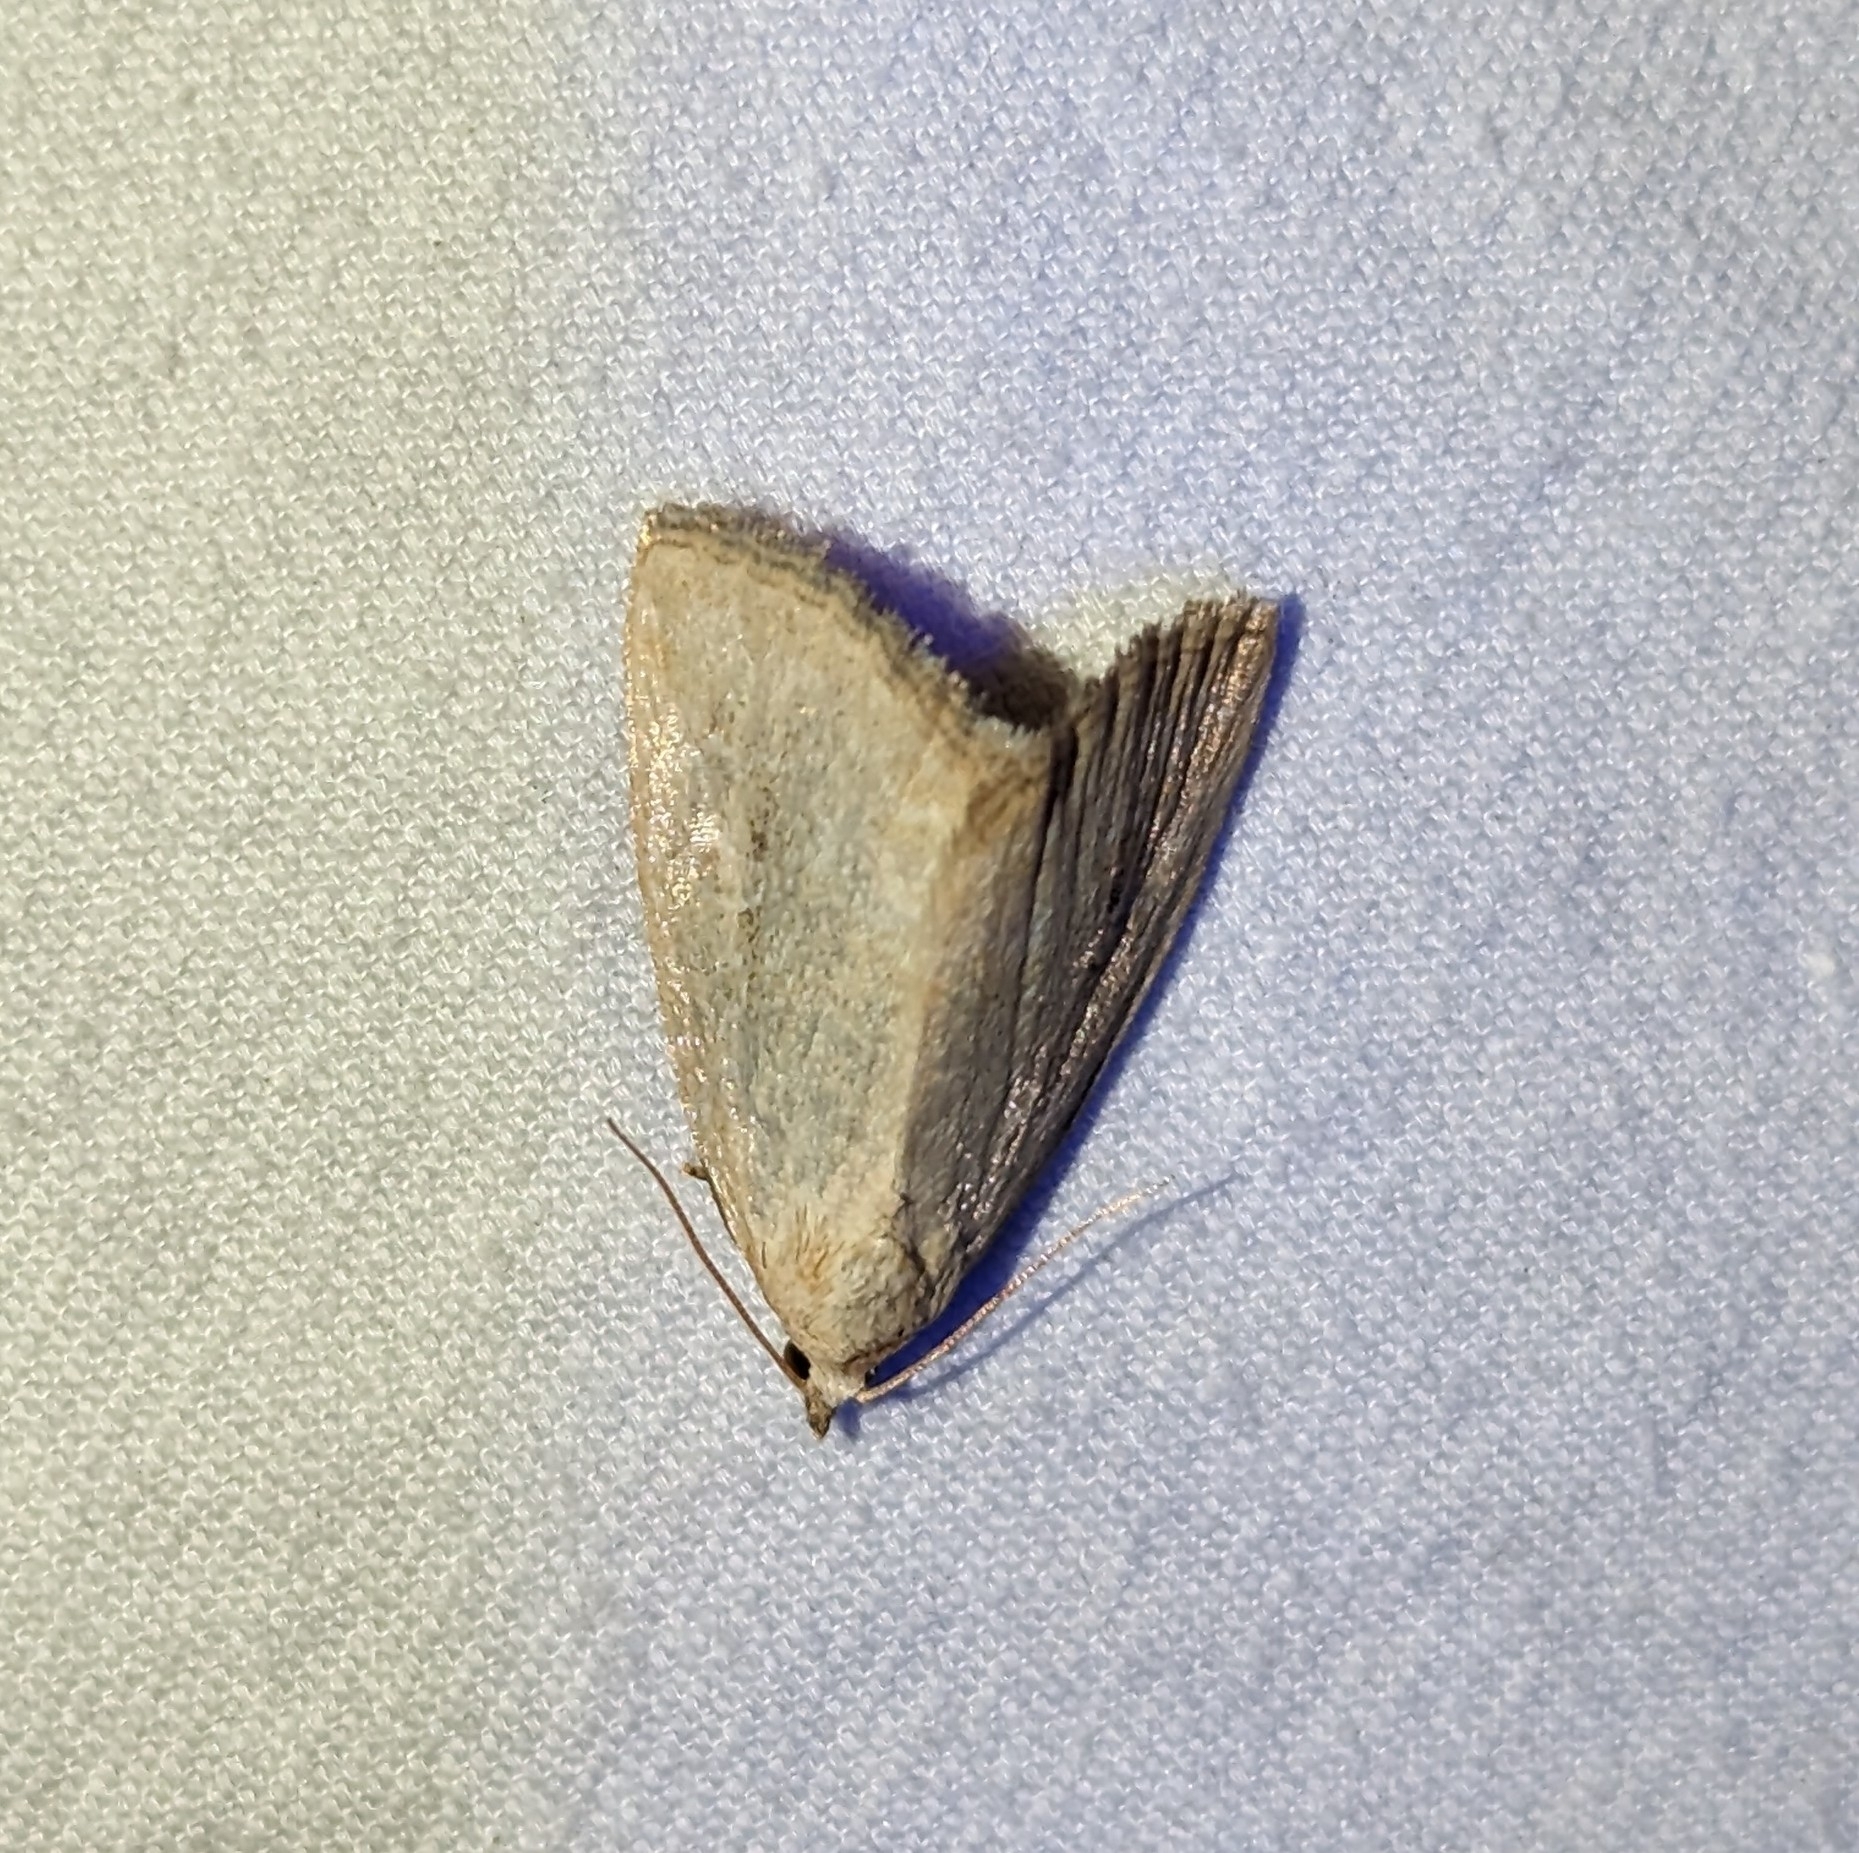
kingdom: Animalia
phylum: Arthropoda
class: Insecta
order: Lepidoptera
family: Noctuidae
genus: Protodeltote
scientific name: Protodeltote albidula
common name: Pale glyph
